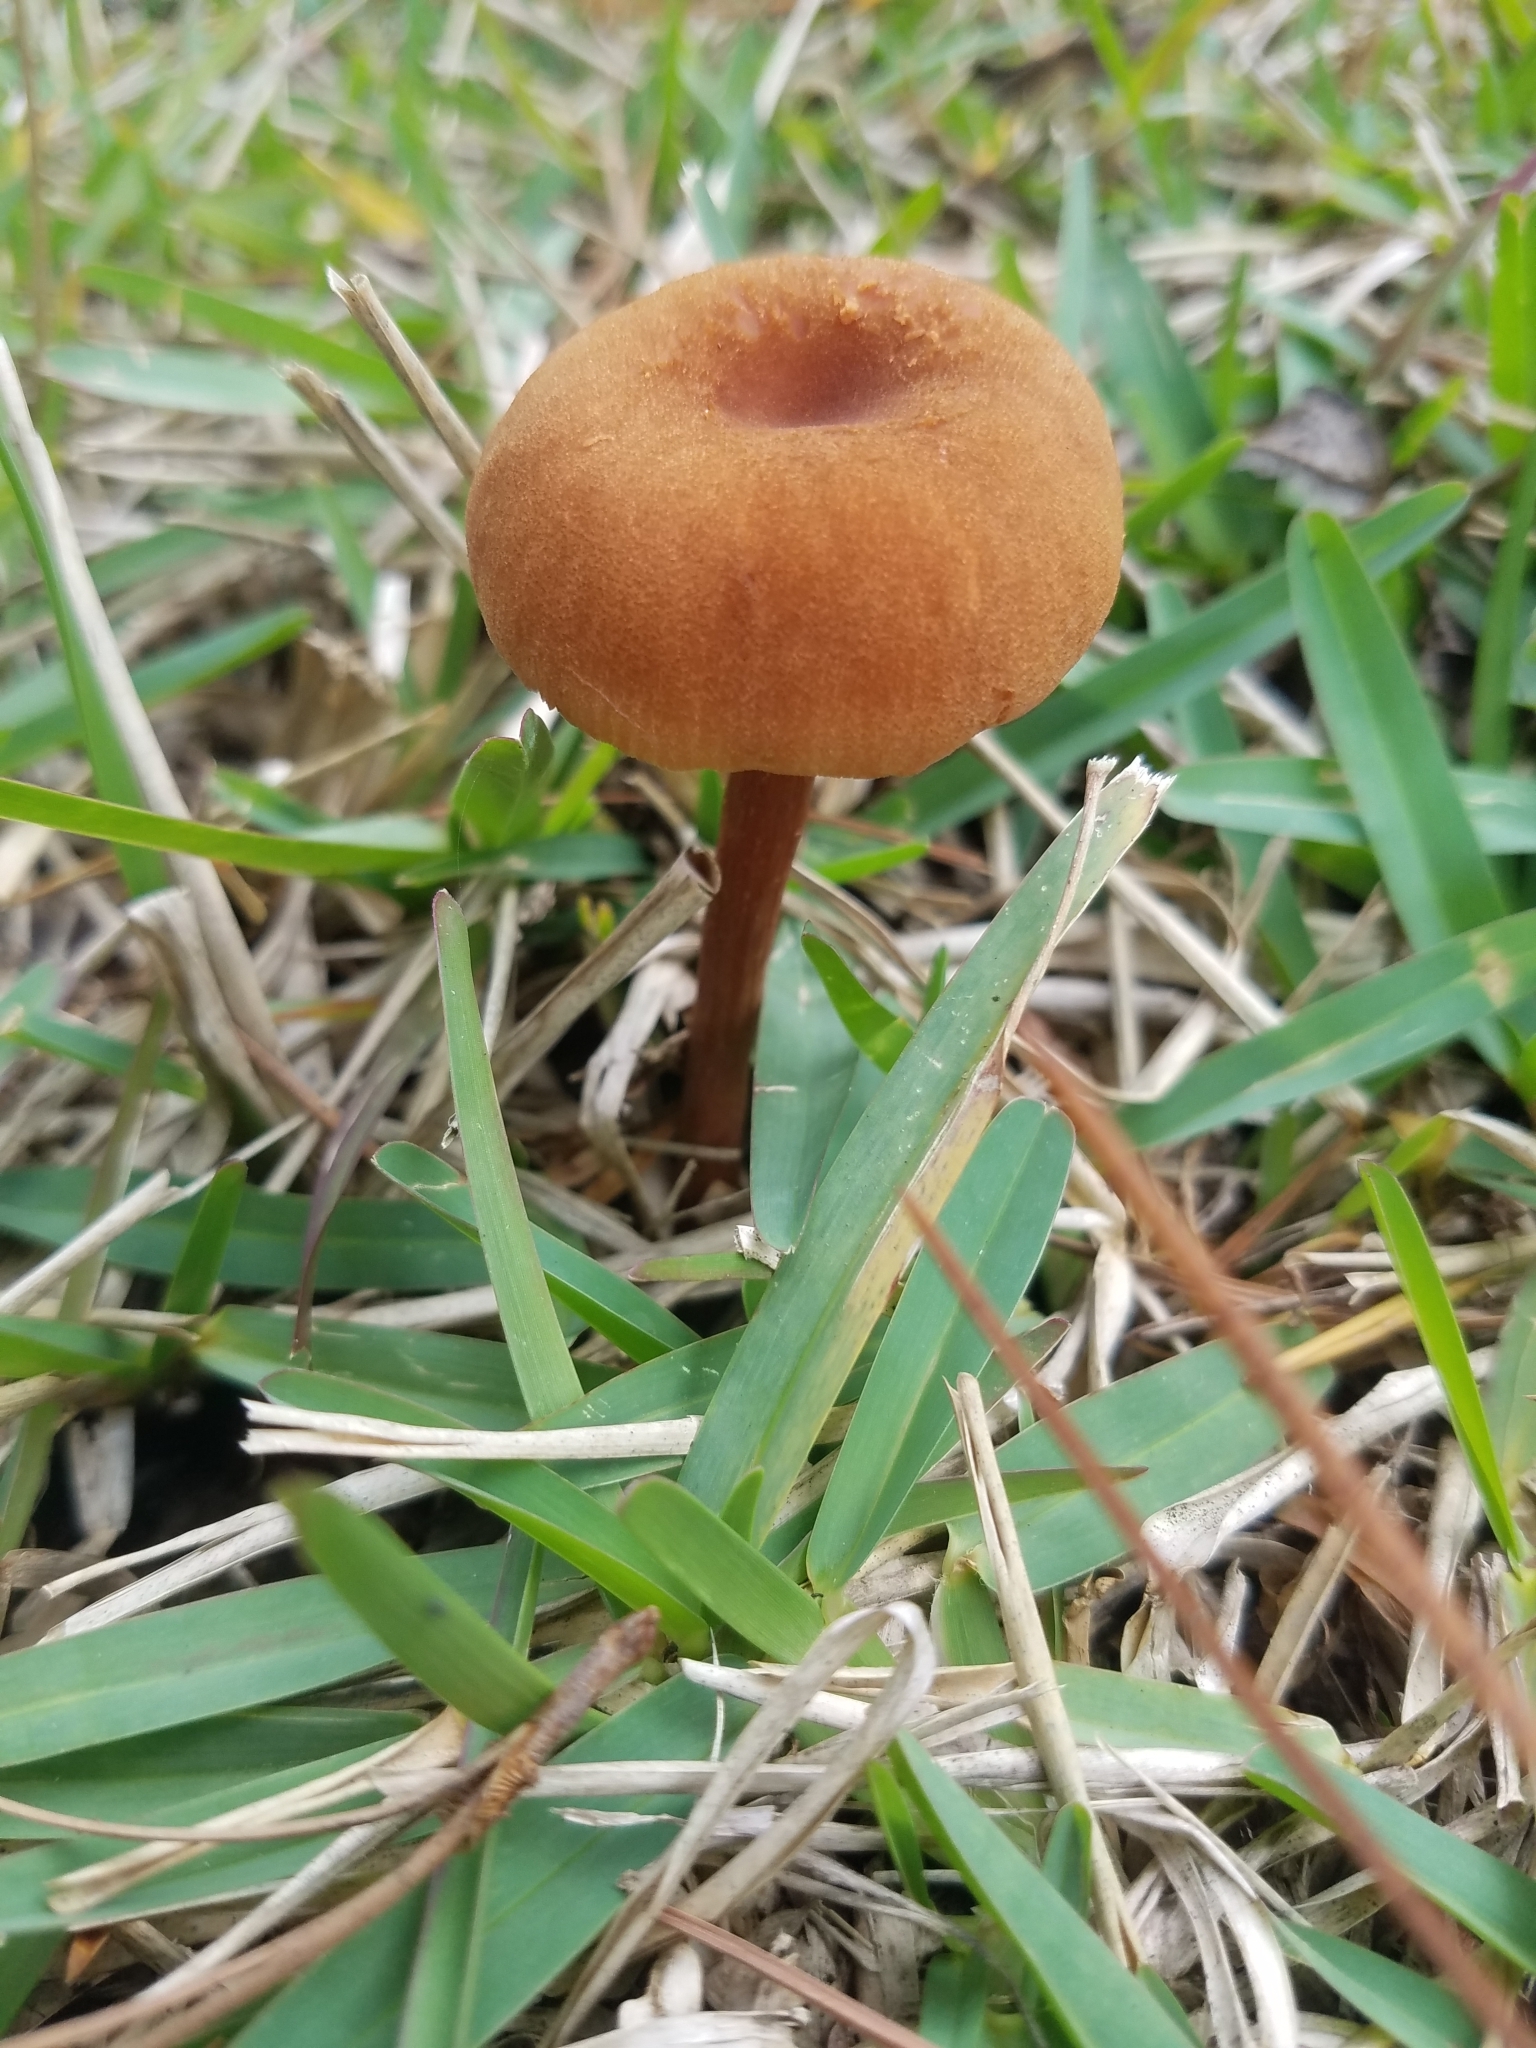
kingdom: Fungi
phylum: Basidiomycota
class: Agaricomycetes
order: Agaricales
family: Hydnangiaceae
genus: Laccaria
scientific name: Laccaria laccata
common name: Deceiver
